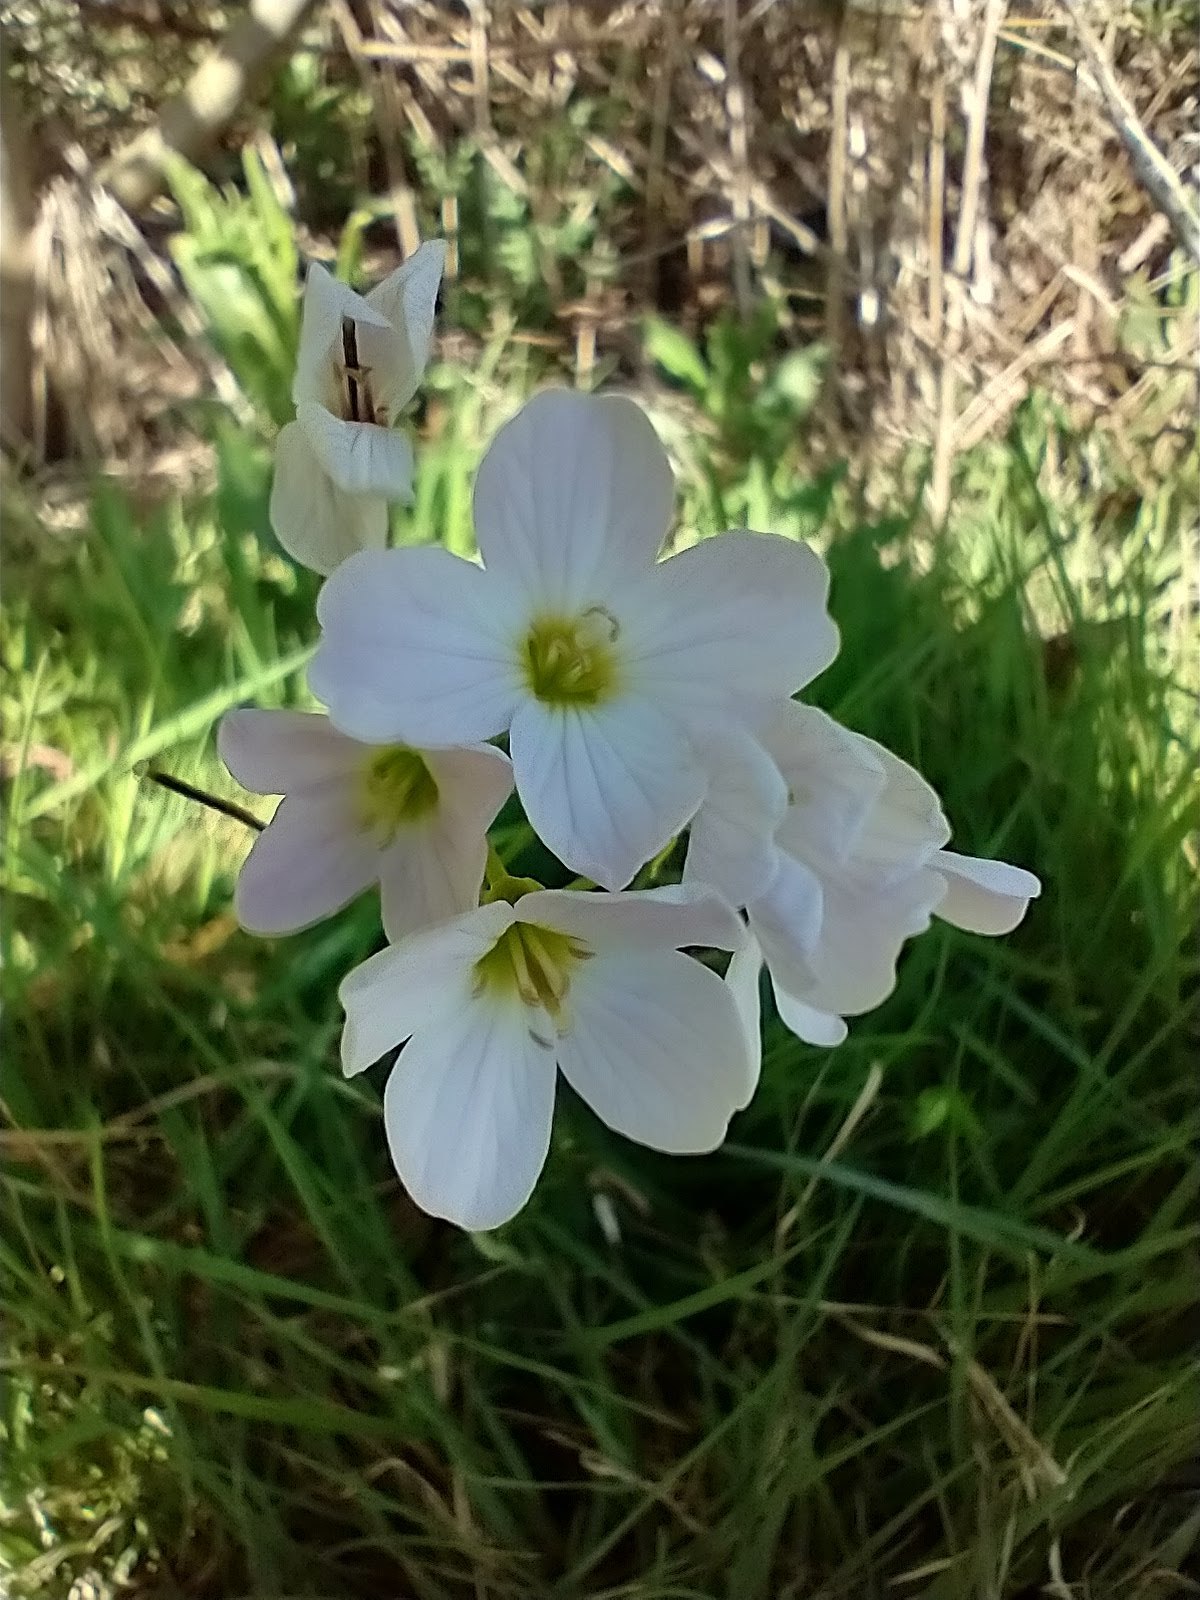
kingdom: Plantae
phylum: Tracheophyta
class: Magnoliopsida
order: Brassicales
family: Brassicaceae
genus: Cardamine
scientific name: Cardamine pratensis
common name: Cuckoo flower
